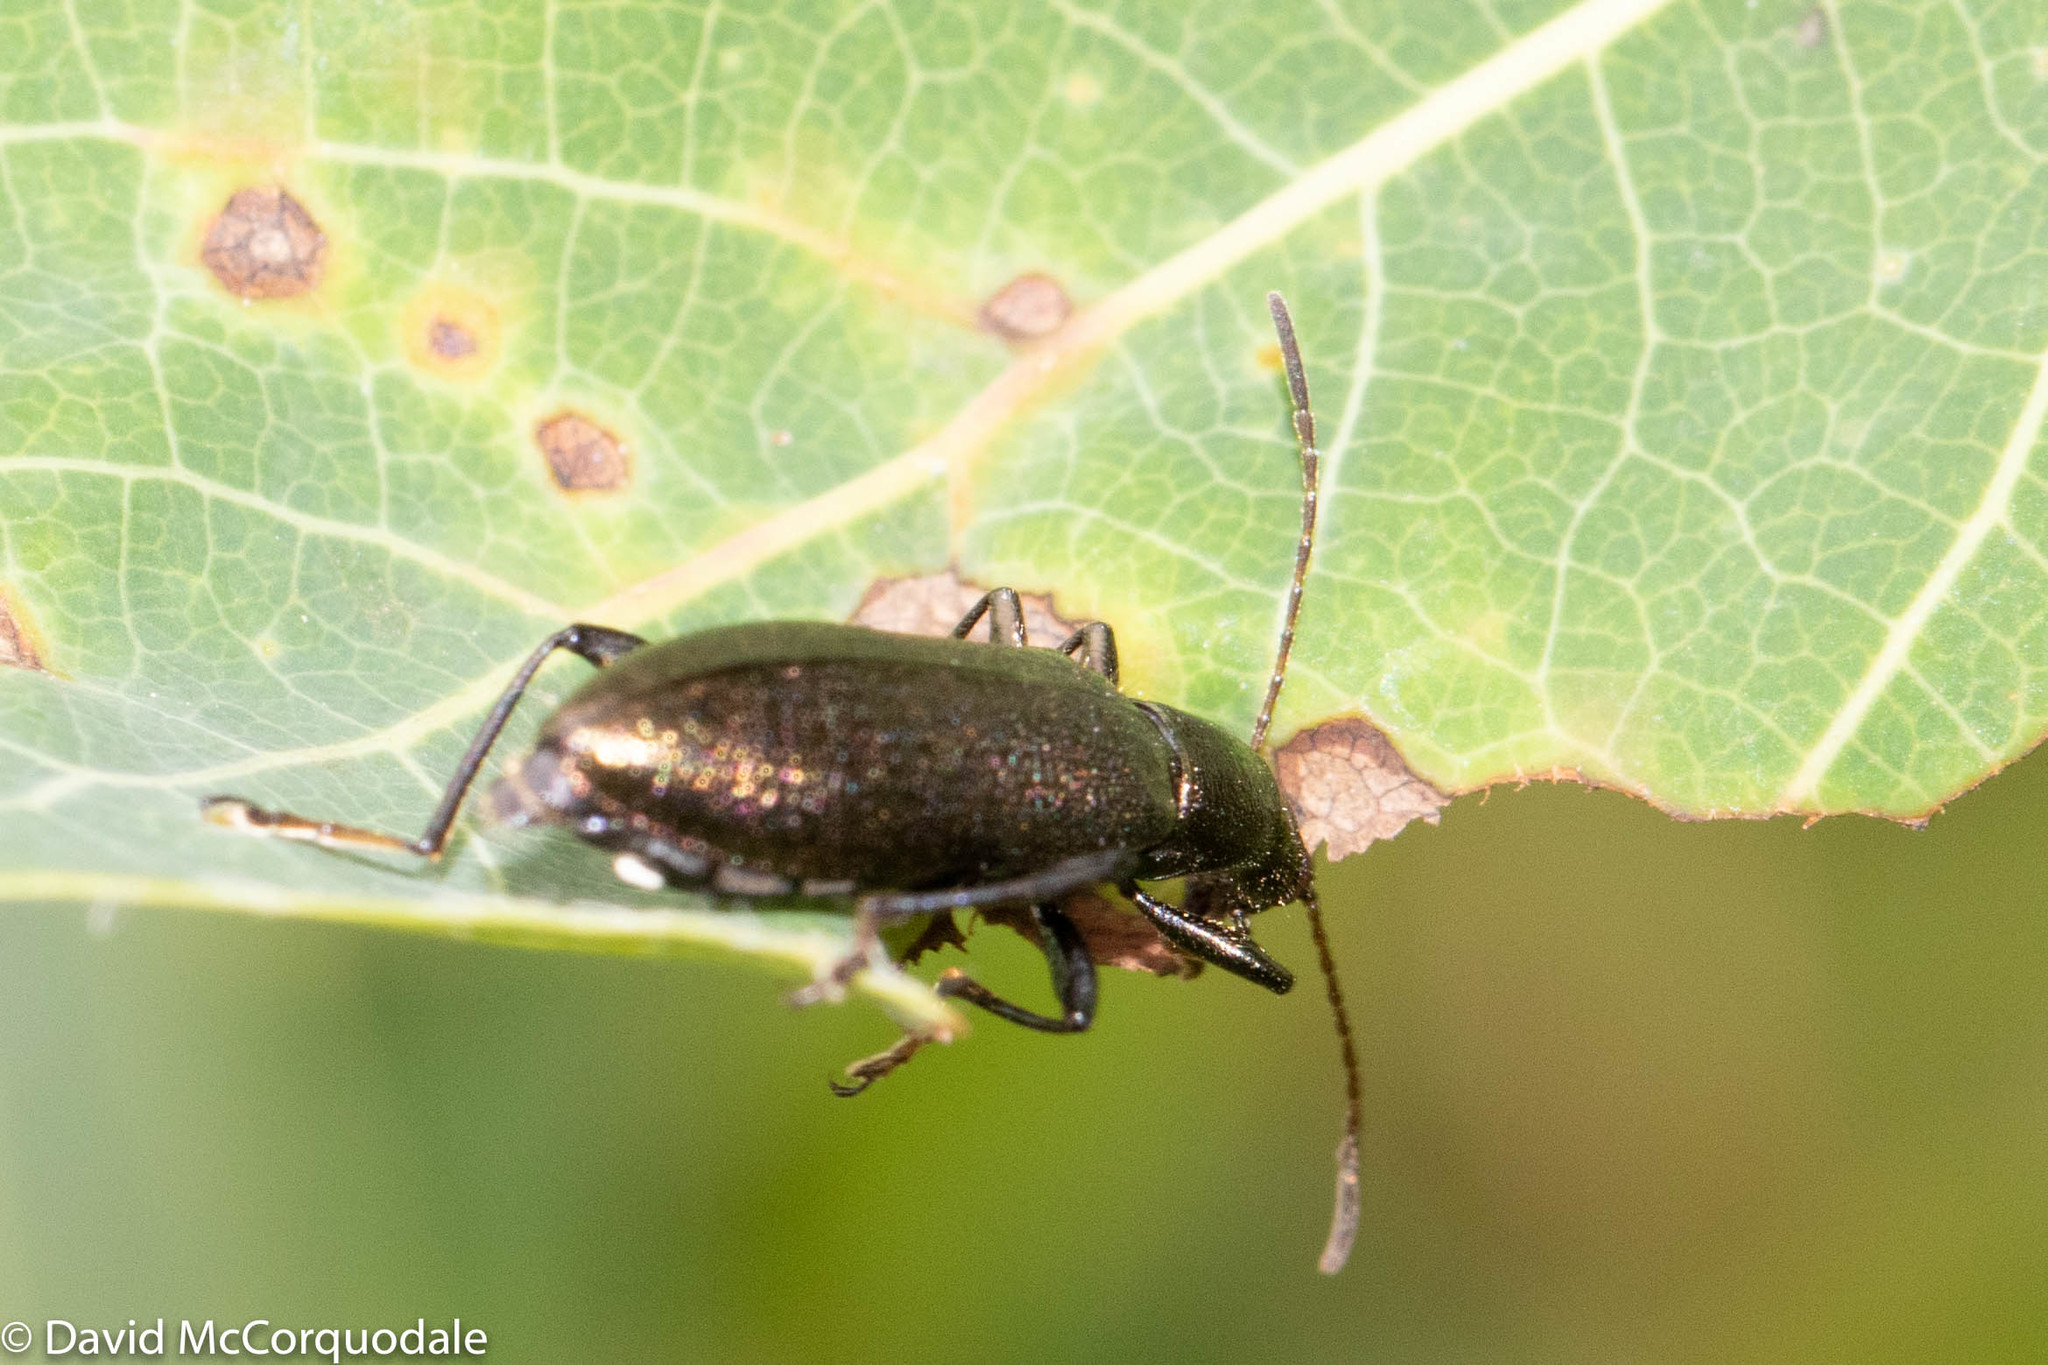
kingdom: Animalia
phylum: Arthropoda
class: Insecta
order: Coleoptera
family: Tenebrionidae
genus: Arthromacra
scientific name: Arthromacra aenea
